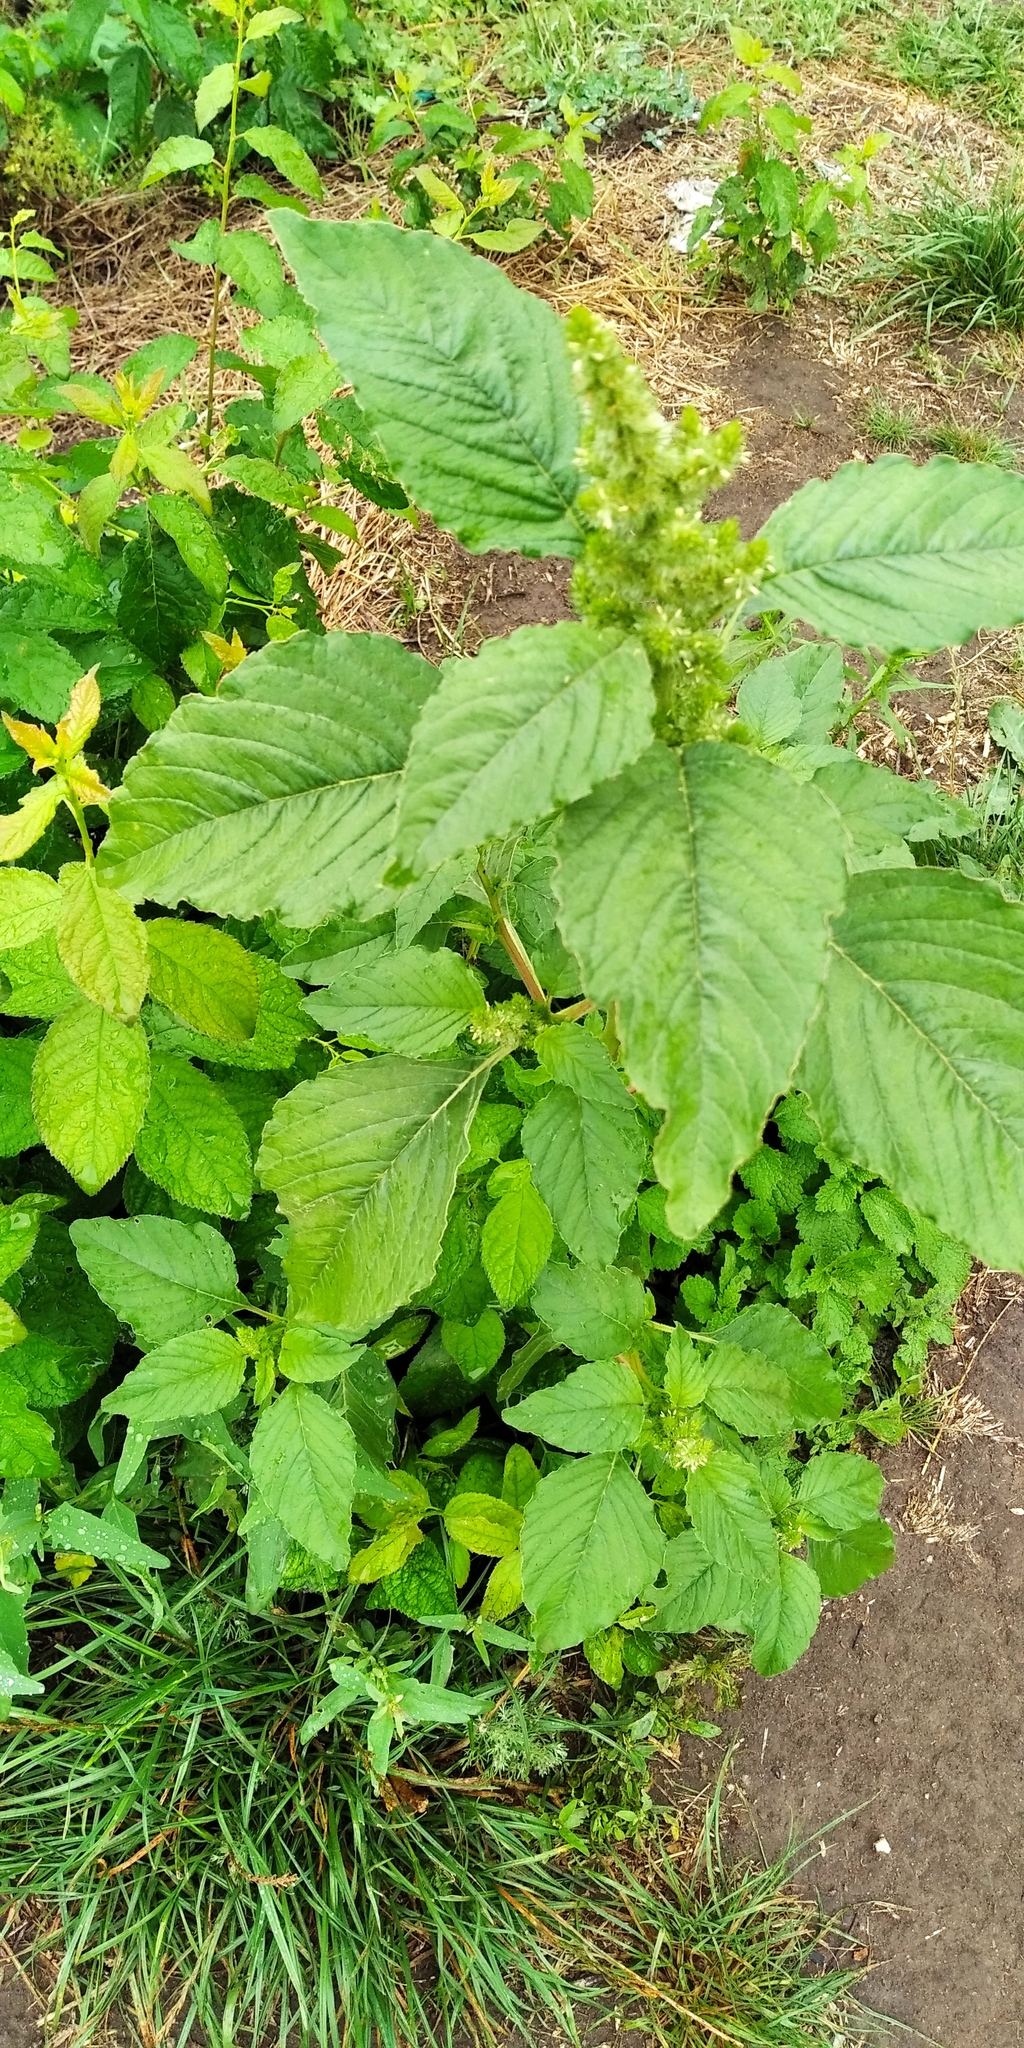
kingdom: Plantae
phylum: Tracheophyta
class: Magnoliopsida
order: Caryophyllales
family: Amaranthaceae
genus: Amaranthus
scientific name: Amaranthus retroflexus
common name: Redroot amaranth
